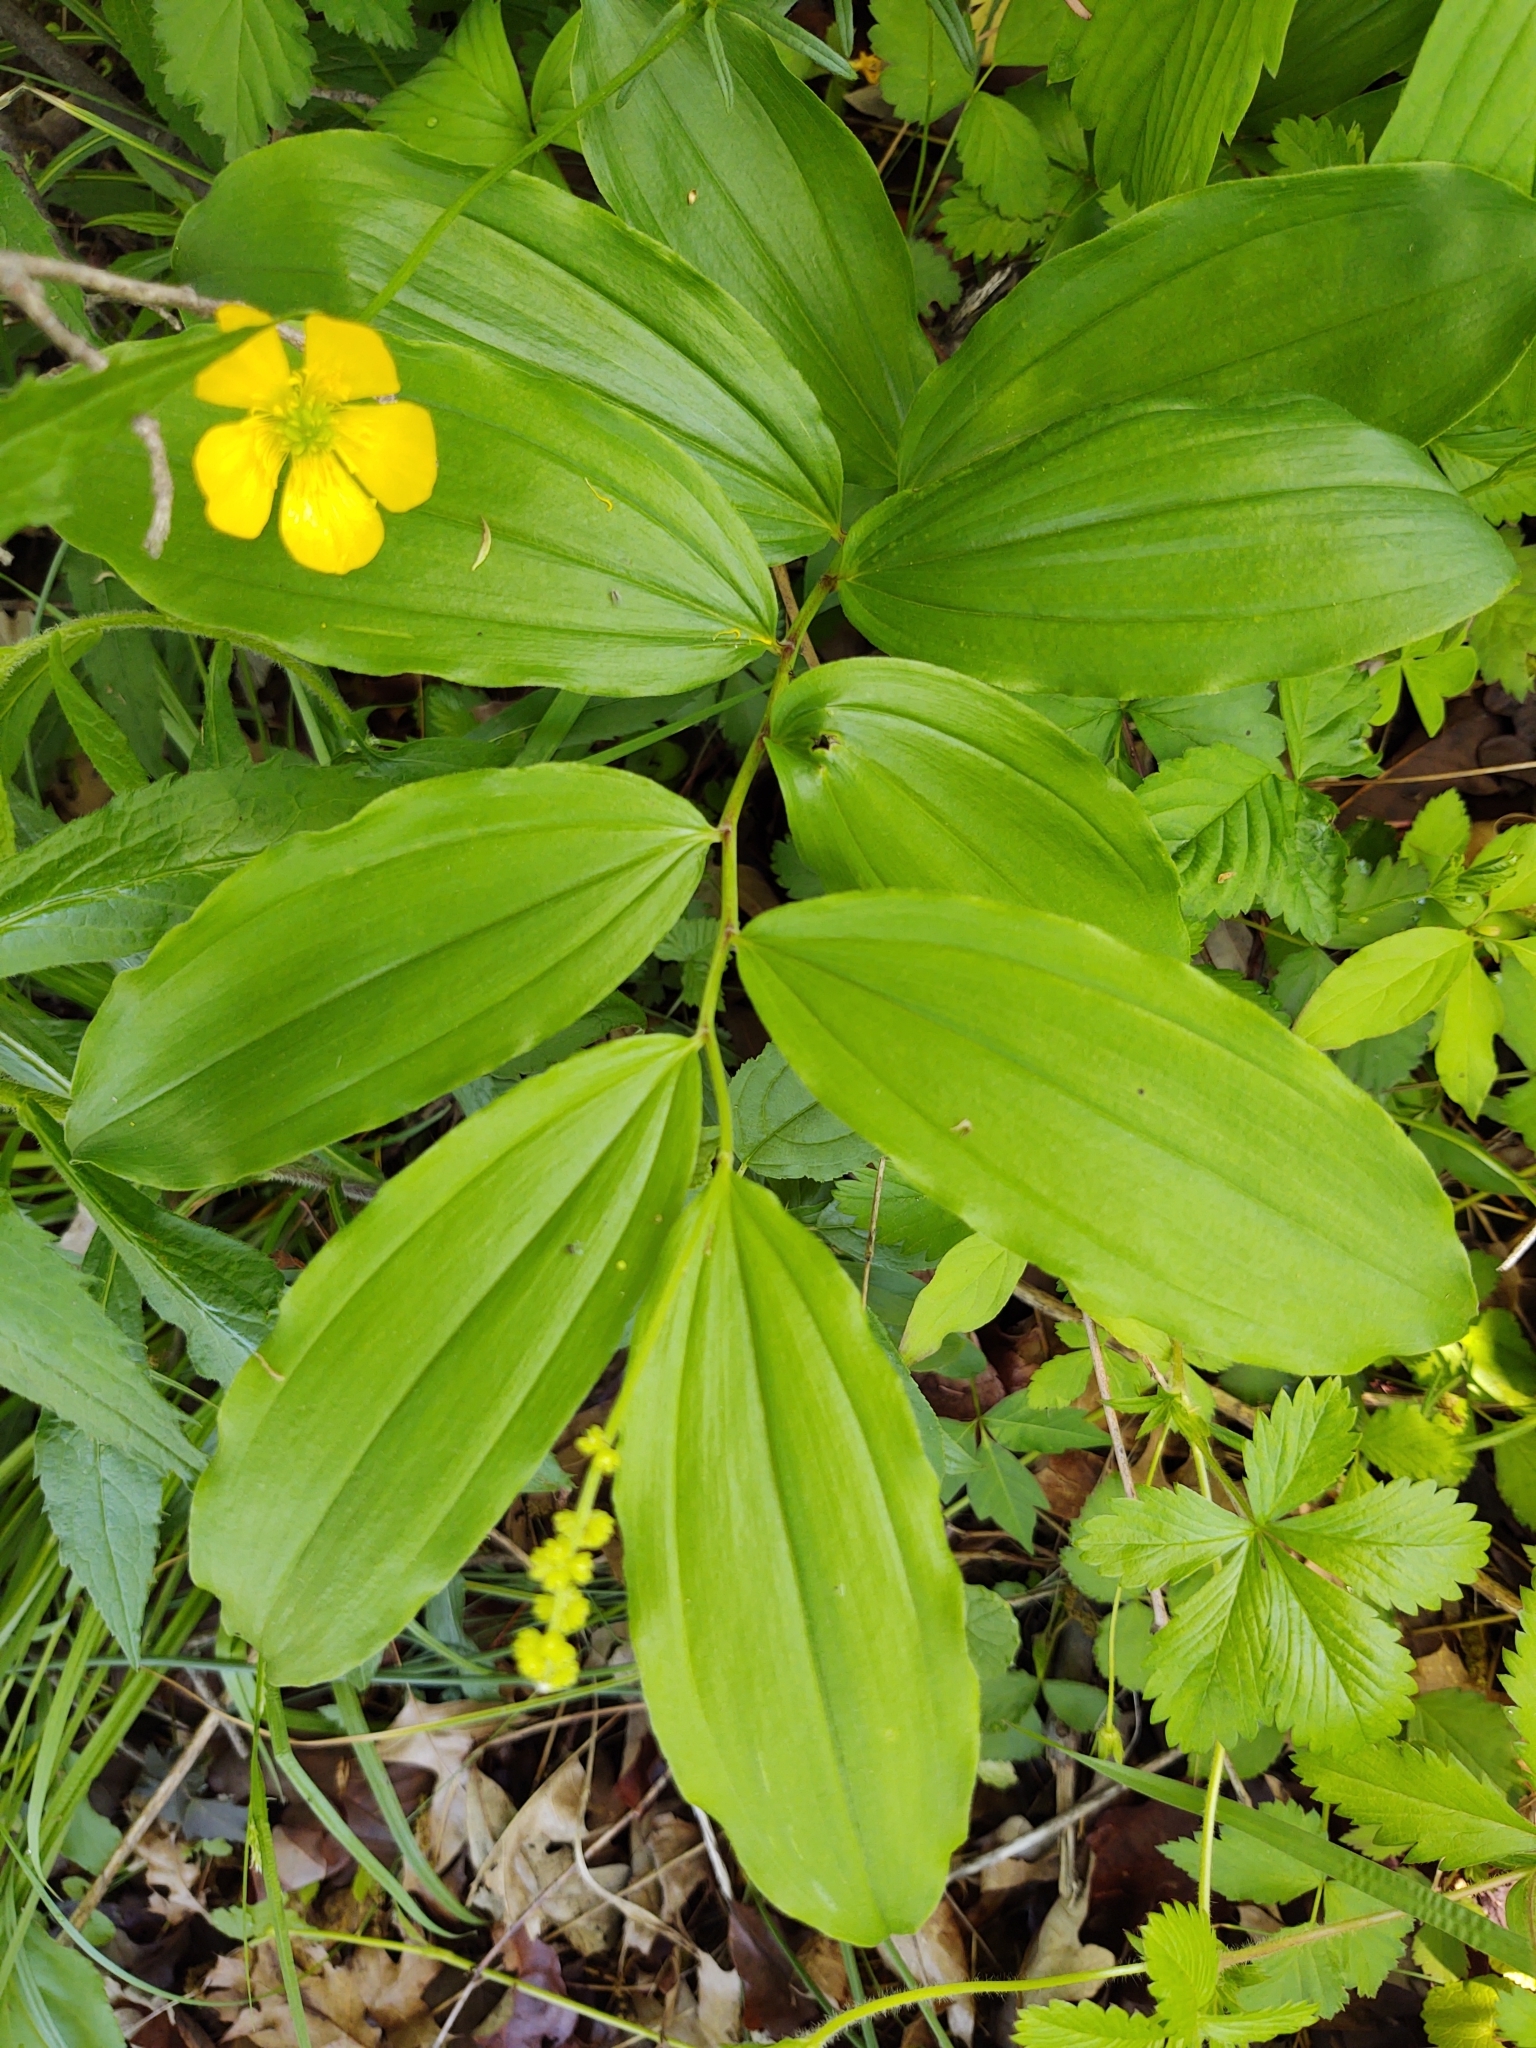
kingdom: Plantae
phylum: Tracheophyta
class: Liliopsida
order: Asparagales
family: Asparagaceae
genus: Maianthemum
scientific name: Maianthemum racemosum
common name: False spikenard
